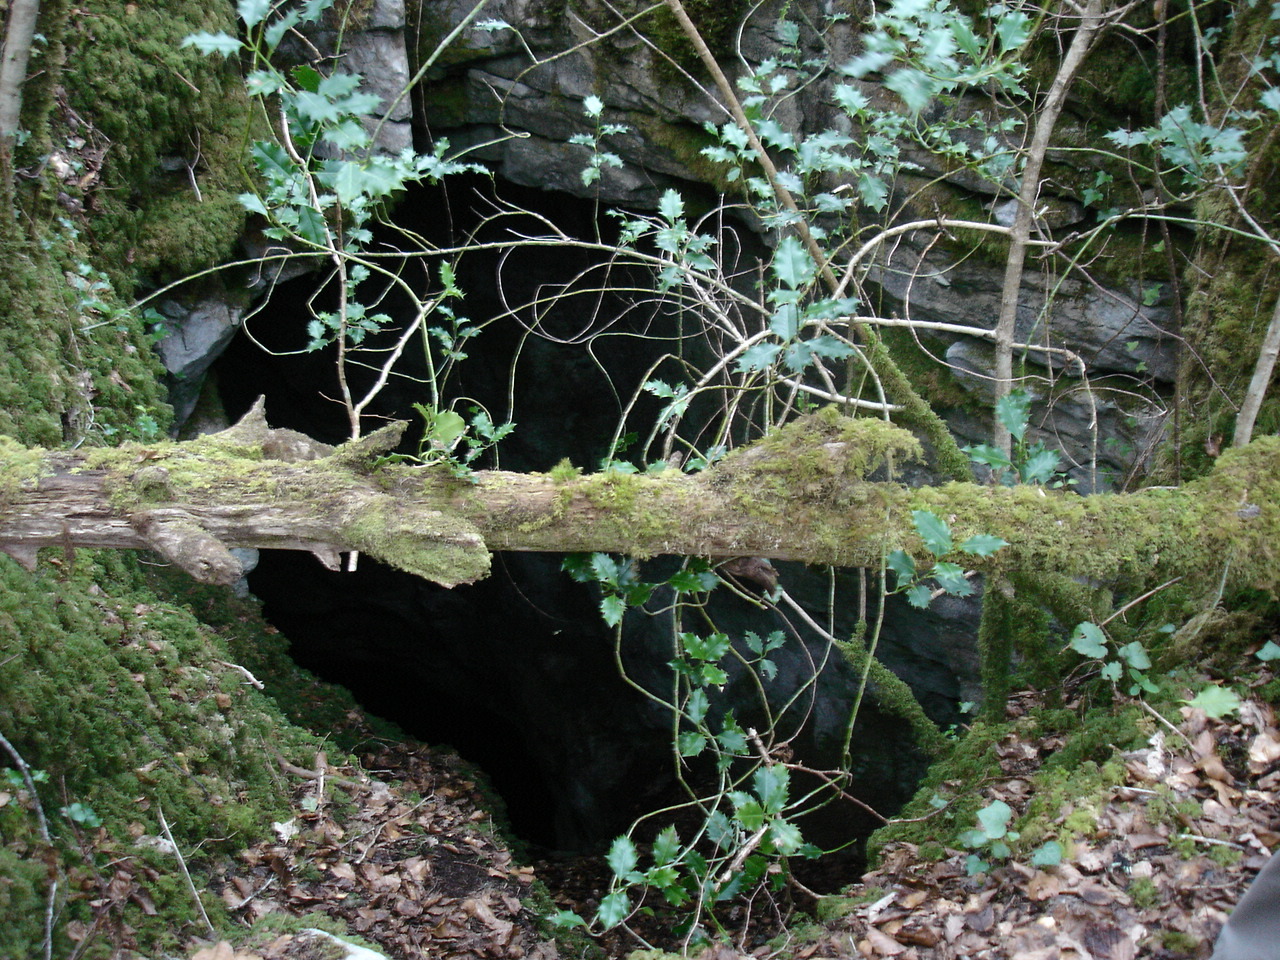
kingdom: Plantae
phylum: Tracheophyta
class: Magnoliopsida
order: Aquifoliales
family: Aquifoliaceae
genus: Ilex
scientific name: Ilex aquifolium
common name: English holly
